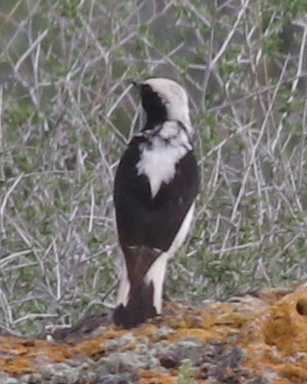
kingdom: Animalia
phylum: Chordata
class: Aves
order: Passeriformes
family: Muscicapidae
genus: Oenanthe
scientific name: Oenanthe finschii
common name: Finsch's wheatear
